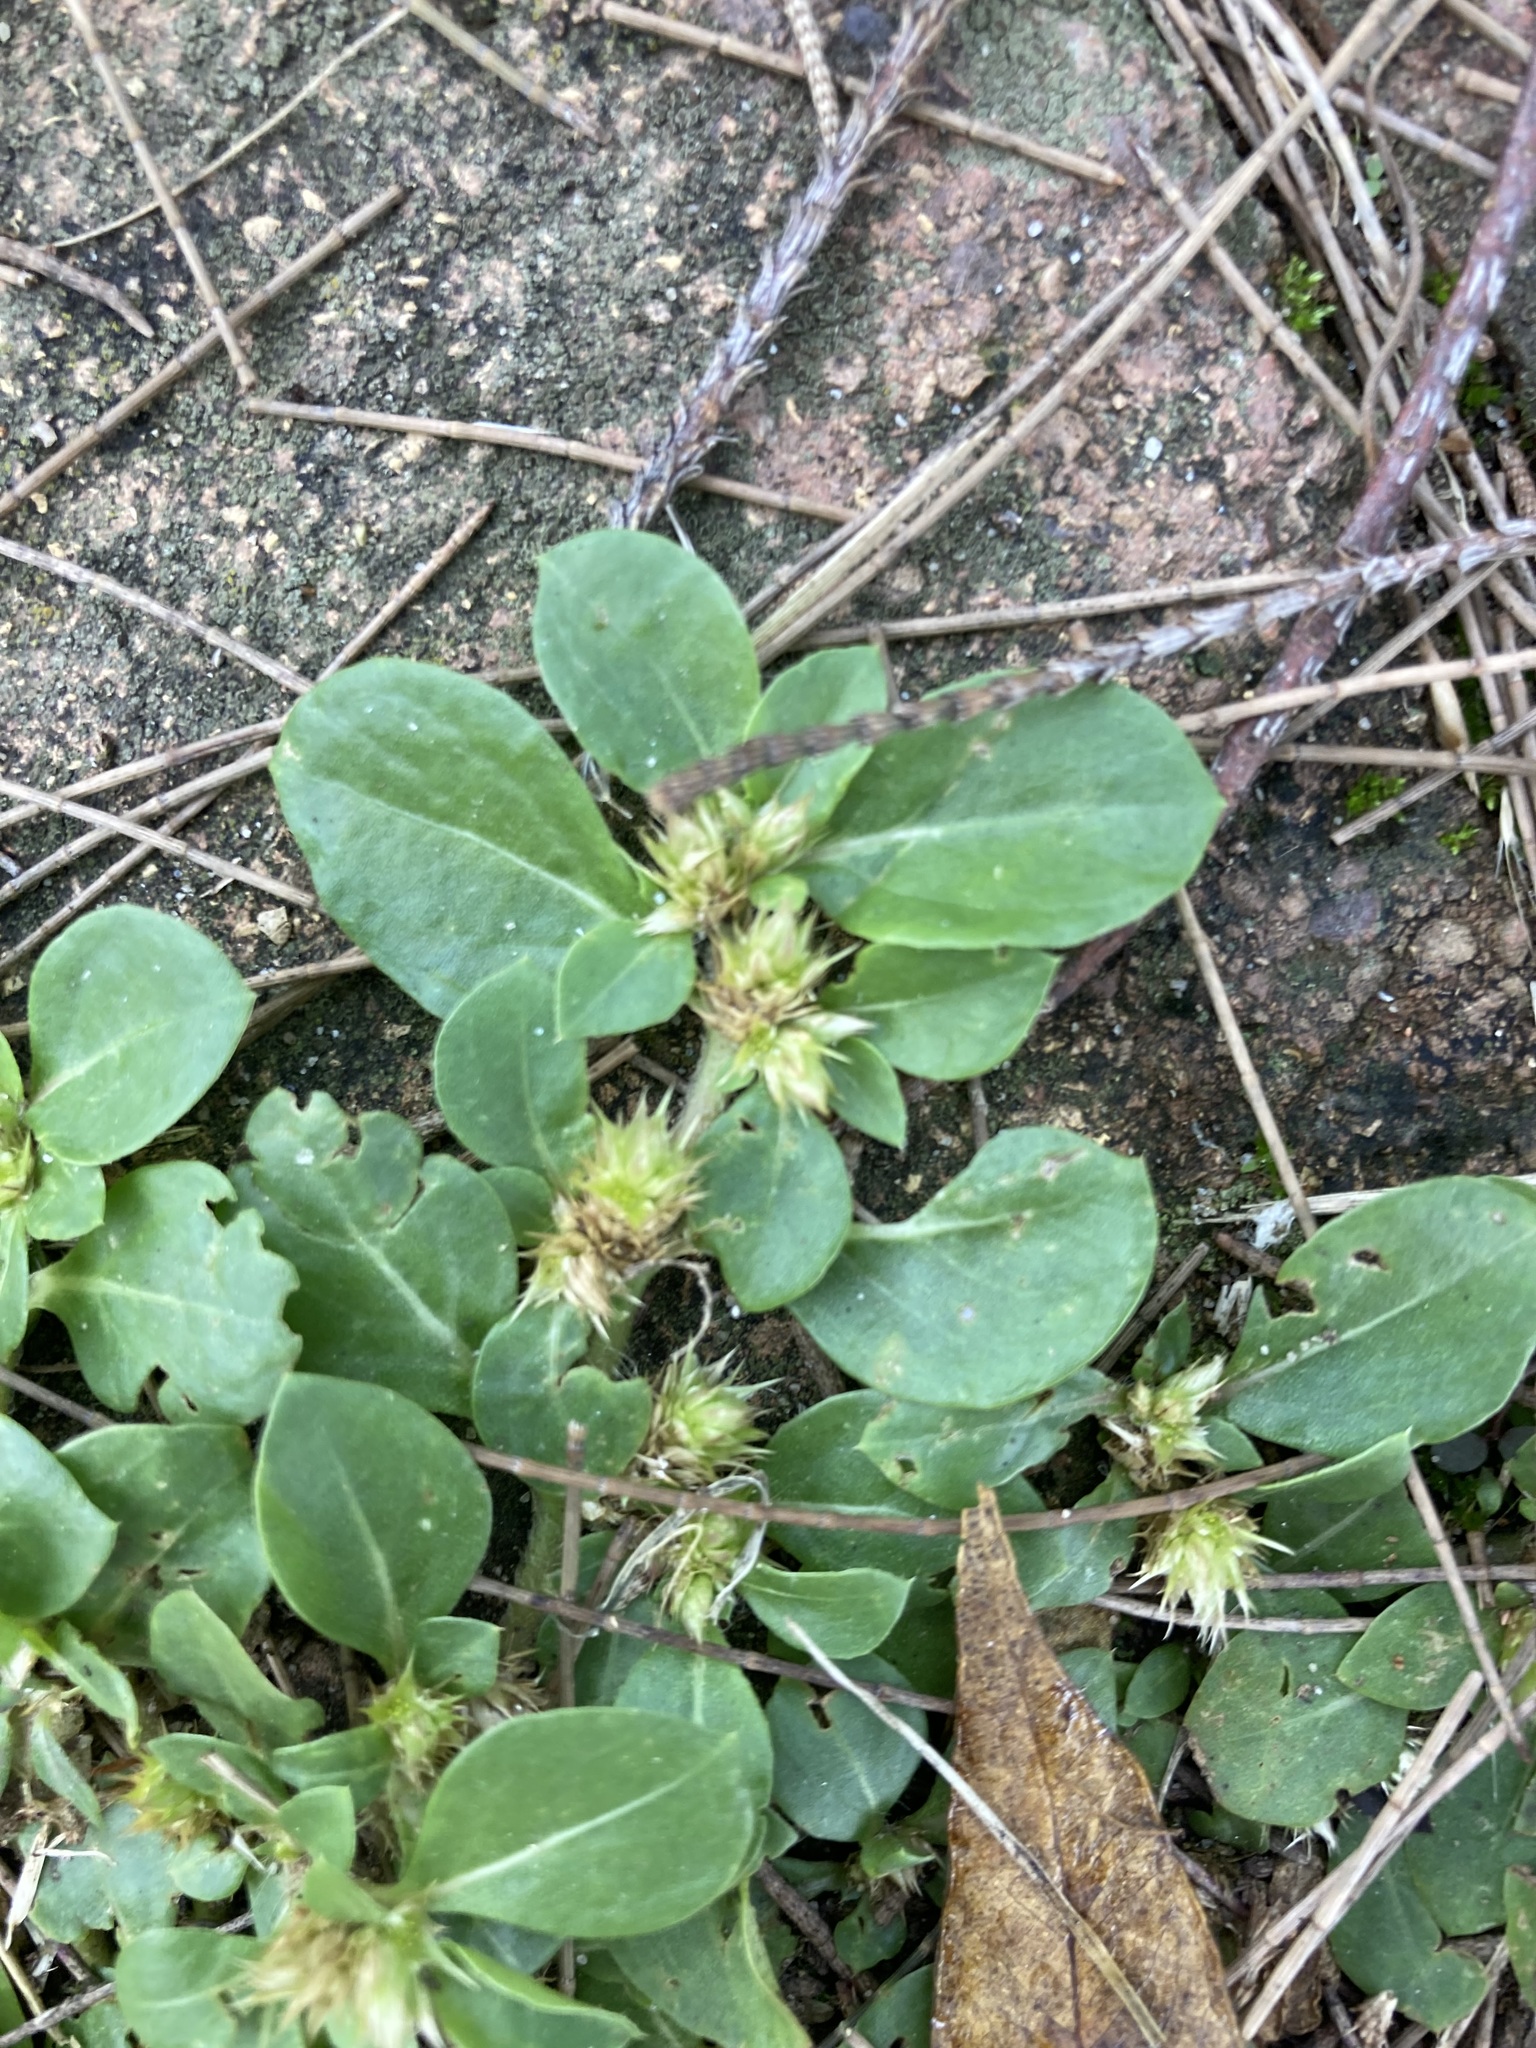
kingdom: Plantae
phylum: Tracheophyta
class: Magnoliopsida
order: Caryophyllales
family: Amaranthaceae
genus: Alternanthera
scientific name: Alternanthera pungens
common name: Khakiweed
